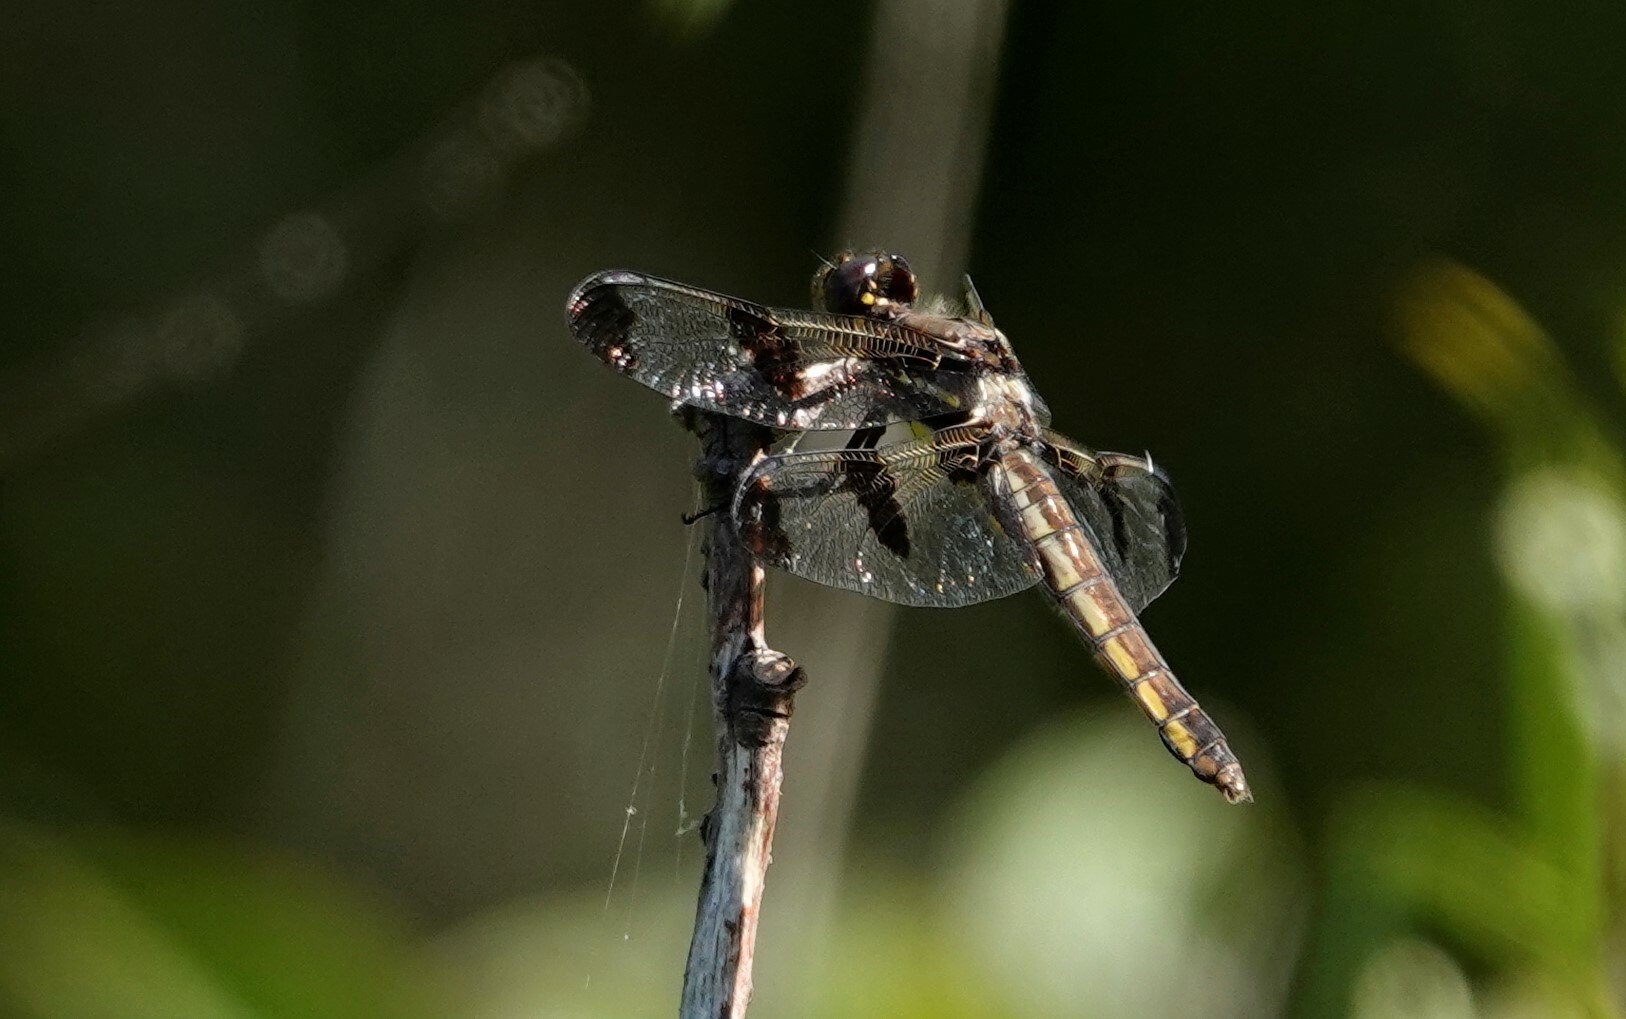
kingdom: Animalia
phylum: Arthropoda
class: Insecta
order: Odonata
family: Libellulidae
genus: Libellula
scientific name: Libellula pulchella
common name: Twelve-spotted skimmer
